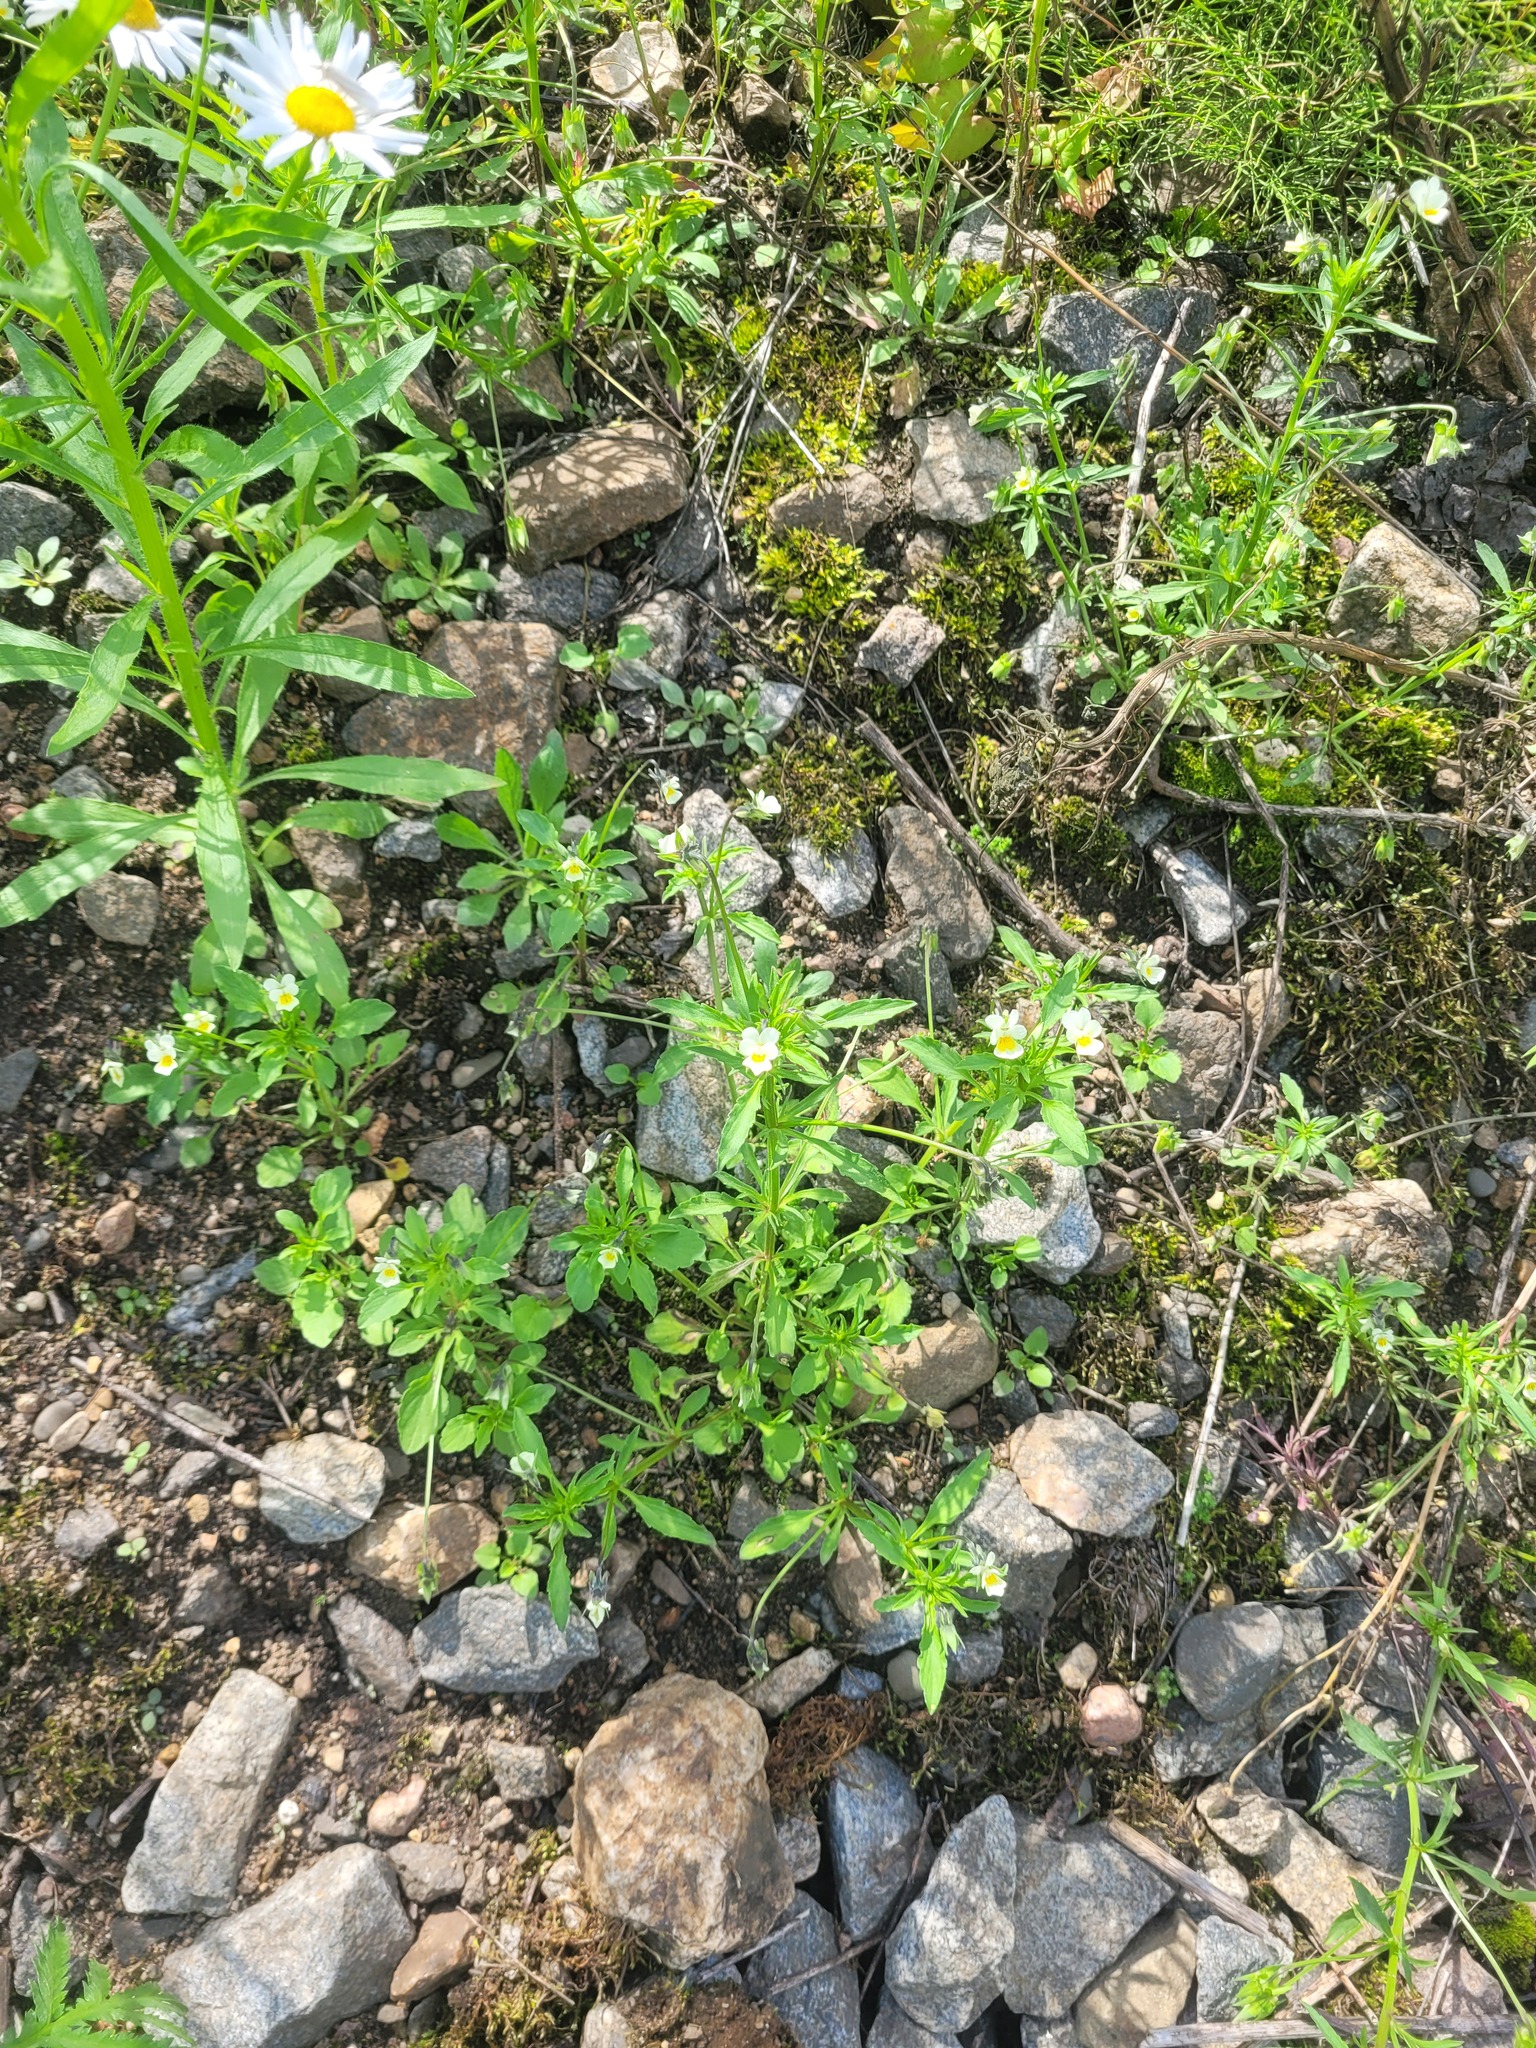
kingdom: Plantae
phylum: Tracheophyta
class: Magnoliopsida
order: Malpighiales
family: Violaceae
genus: Viola
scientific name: Viola arvensis
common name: Field pansy
